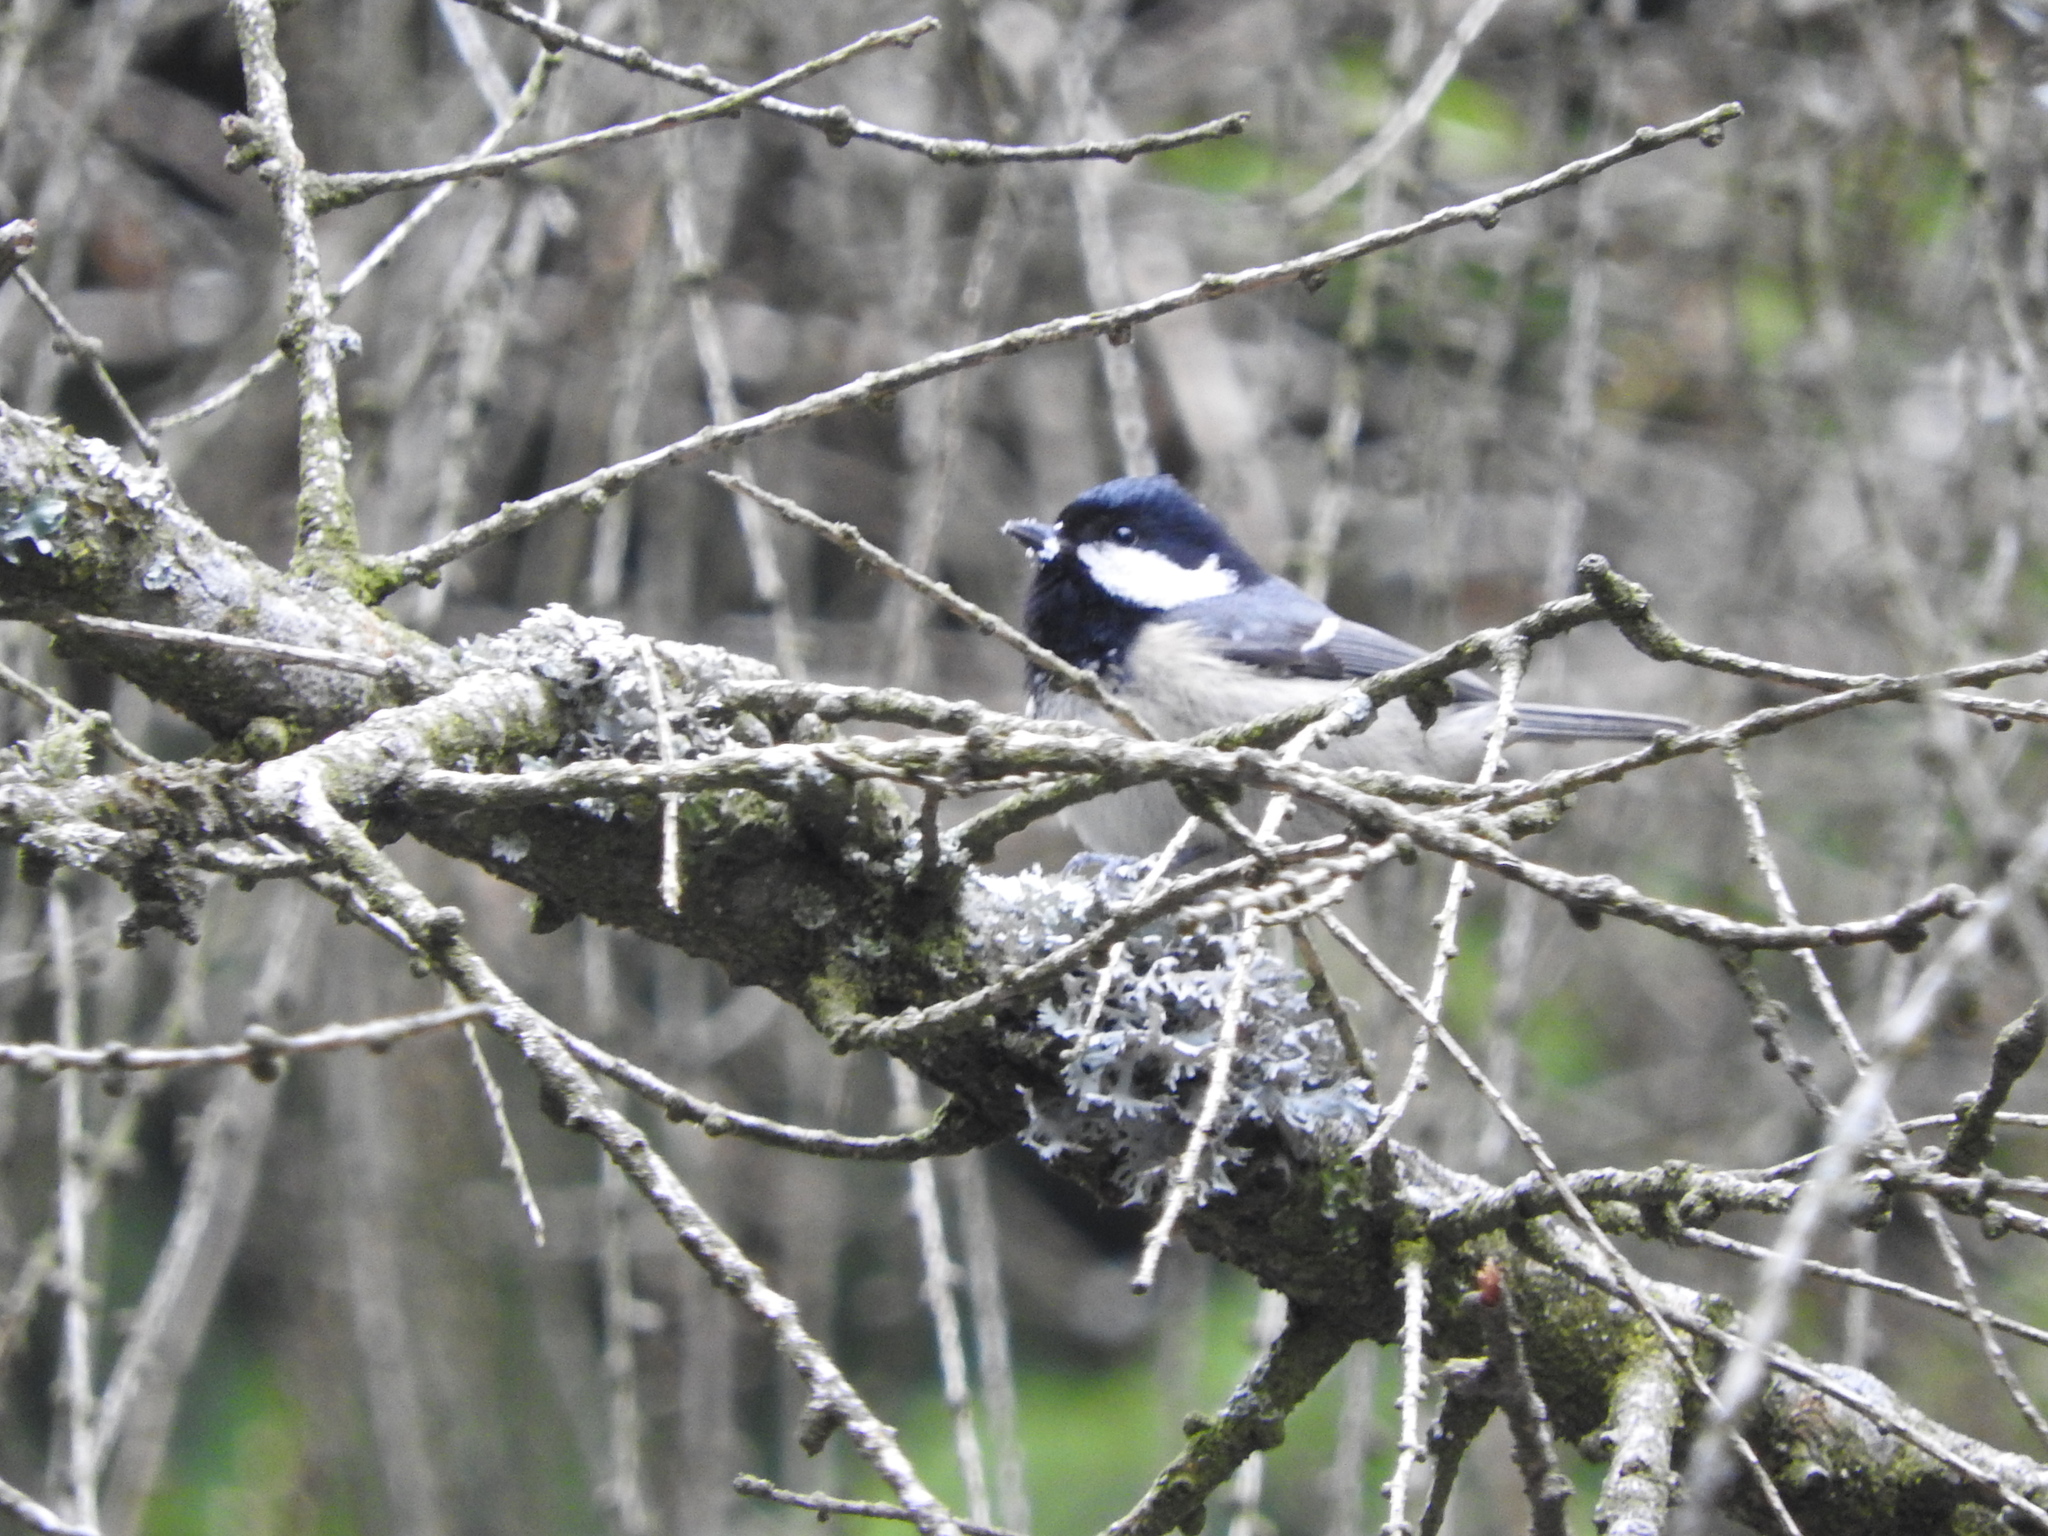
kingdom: Animalia
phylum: Chordata
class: Aves
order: Passeriformes
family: Paridae
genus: Periparus
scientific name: Periparus ater
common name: Coal tit
